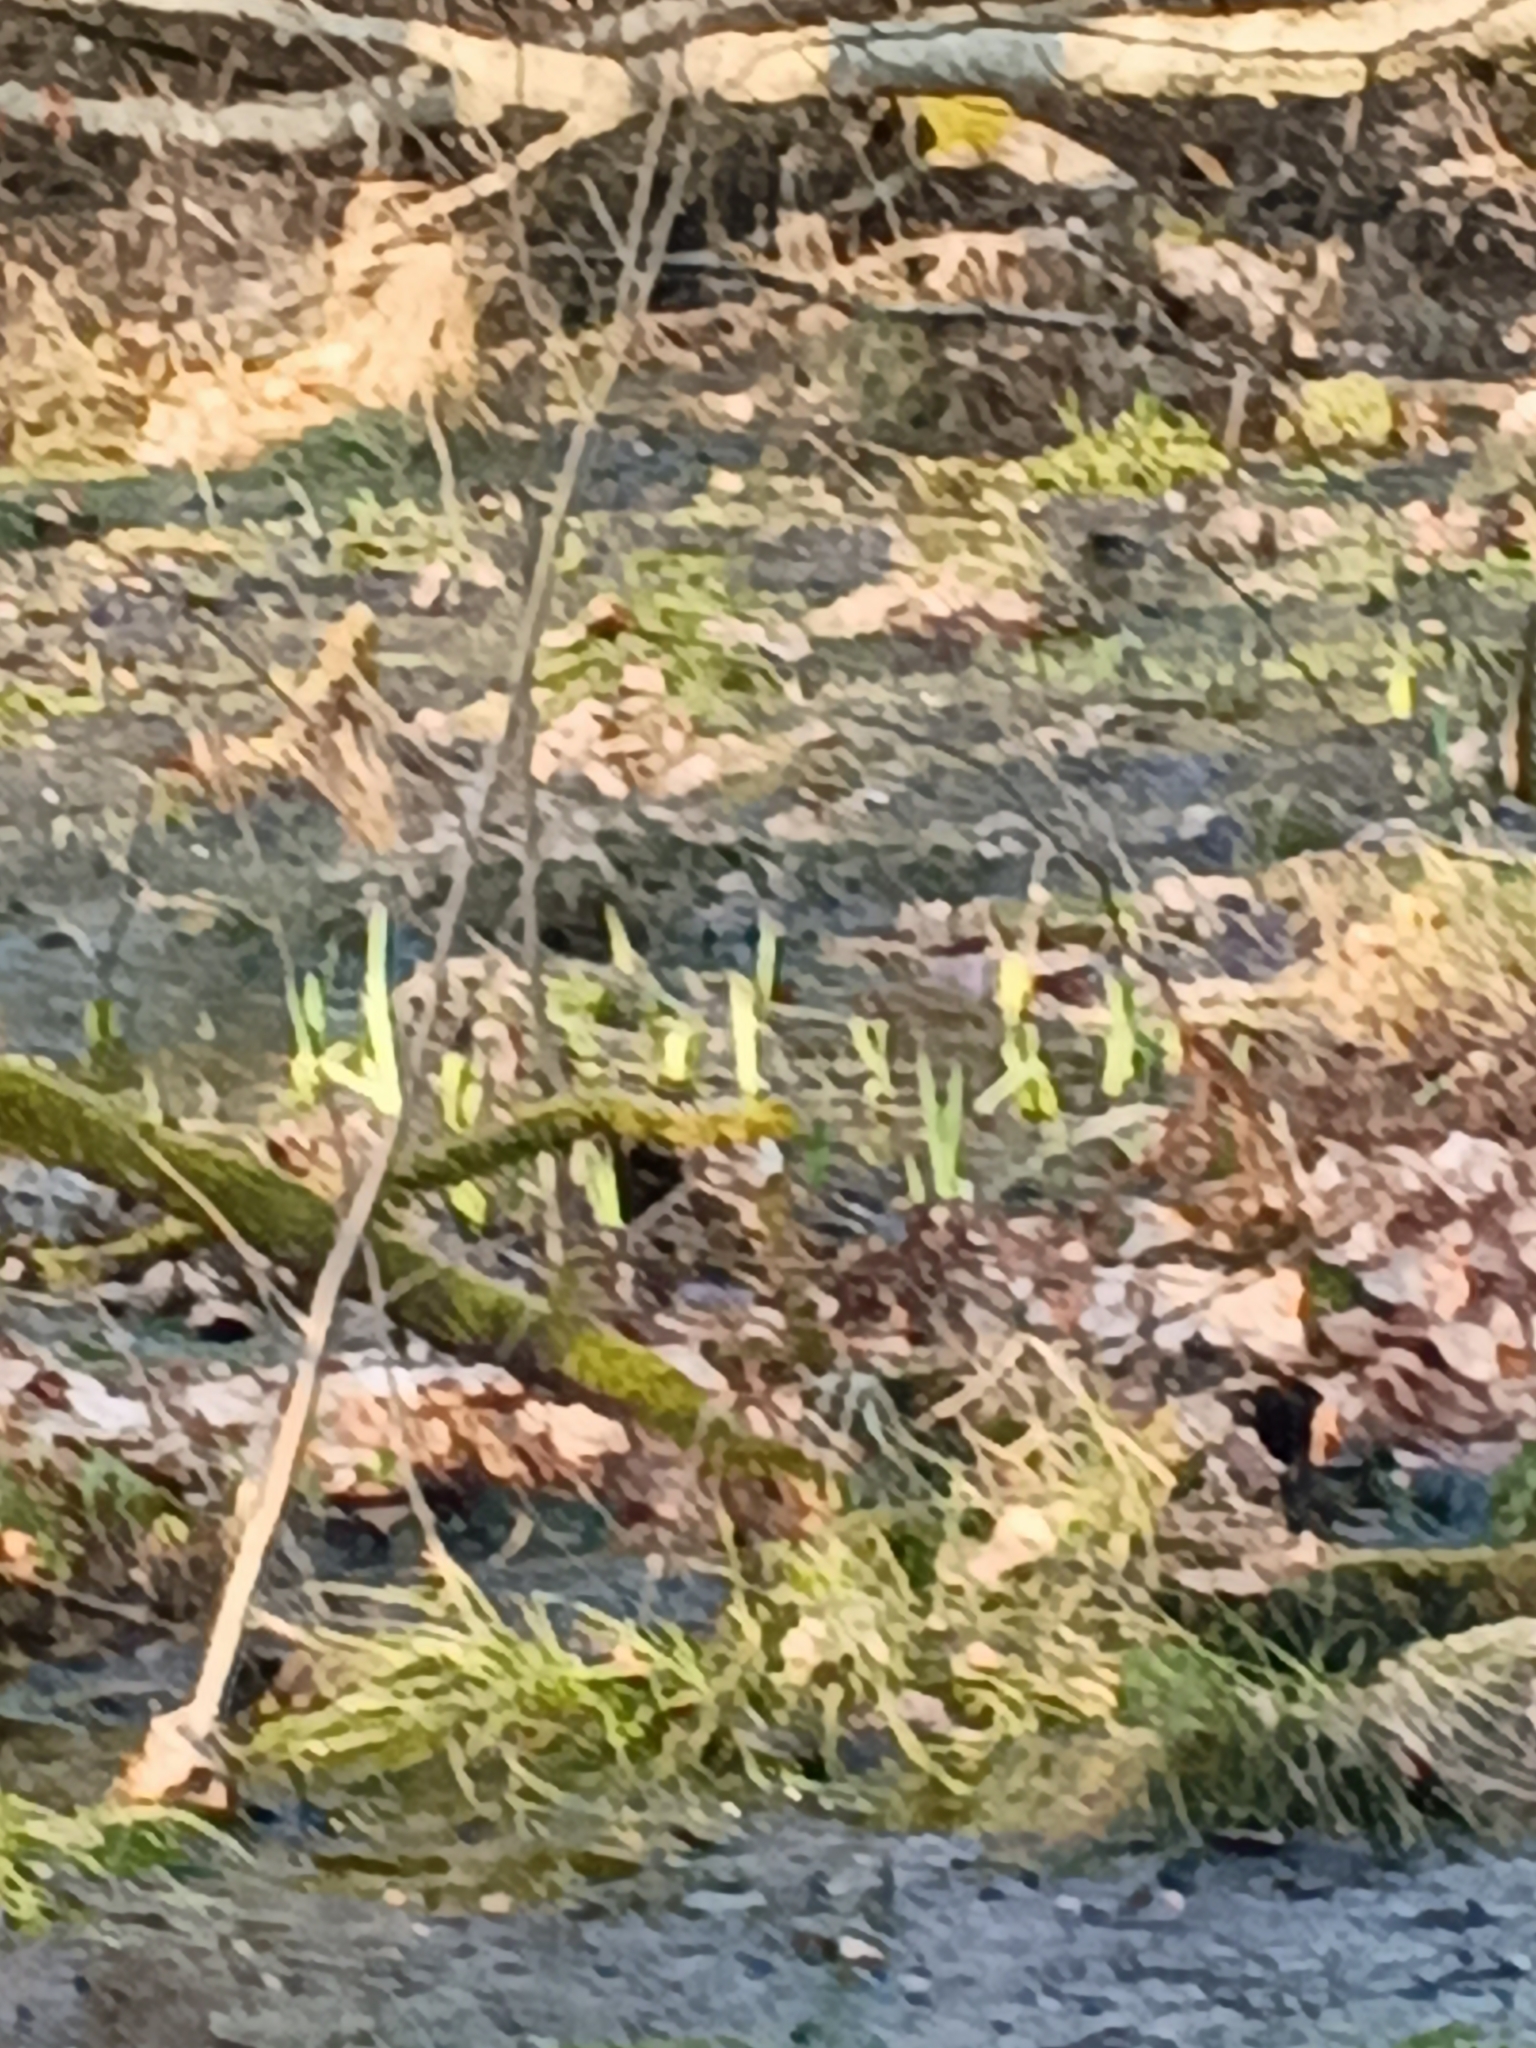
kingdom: Plantae
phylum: Tracheophyta
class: Liliopsida
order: Asparagales
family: Iridaceae
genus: Iris
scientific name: Iris pseudacorus
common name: Yellow flag
